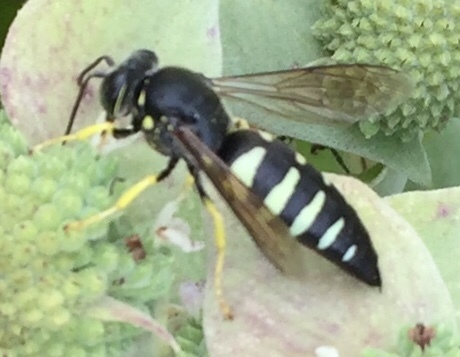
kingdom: Animalia
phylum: Arthropoda
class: Insecta
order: Hymenoptera
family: Crabronidae
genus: Bicyrtes
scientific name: Bicyrtes quadrifasciatus
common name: Four-banded stink bug hunter wasp
